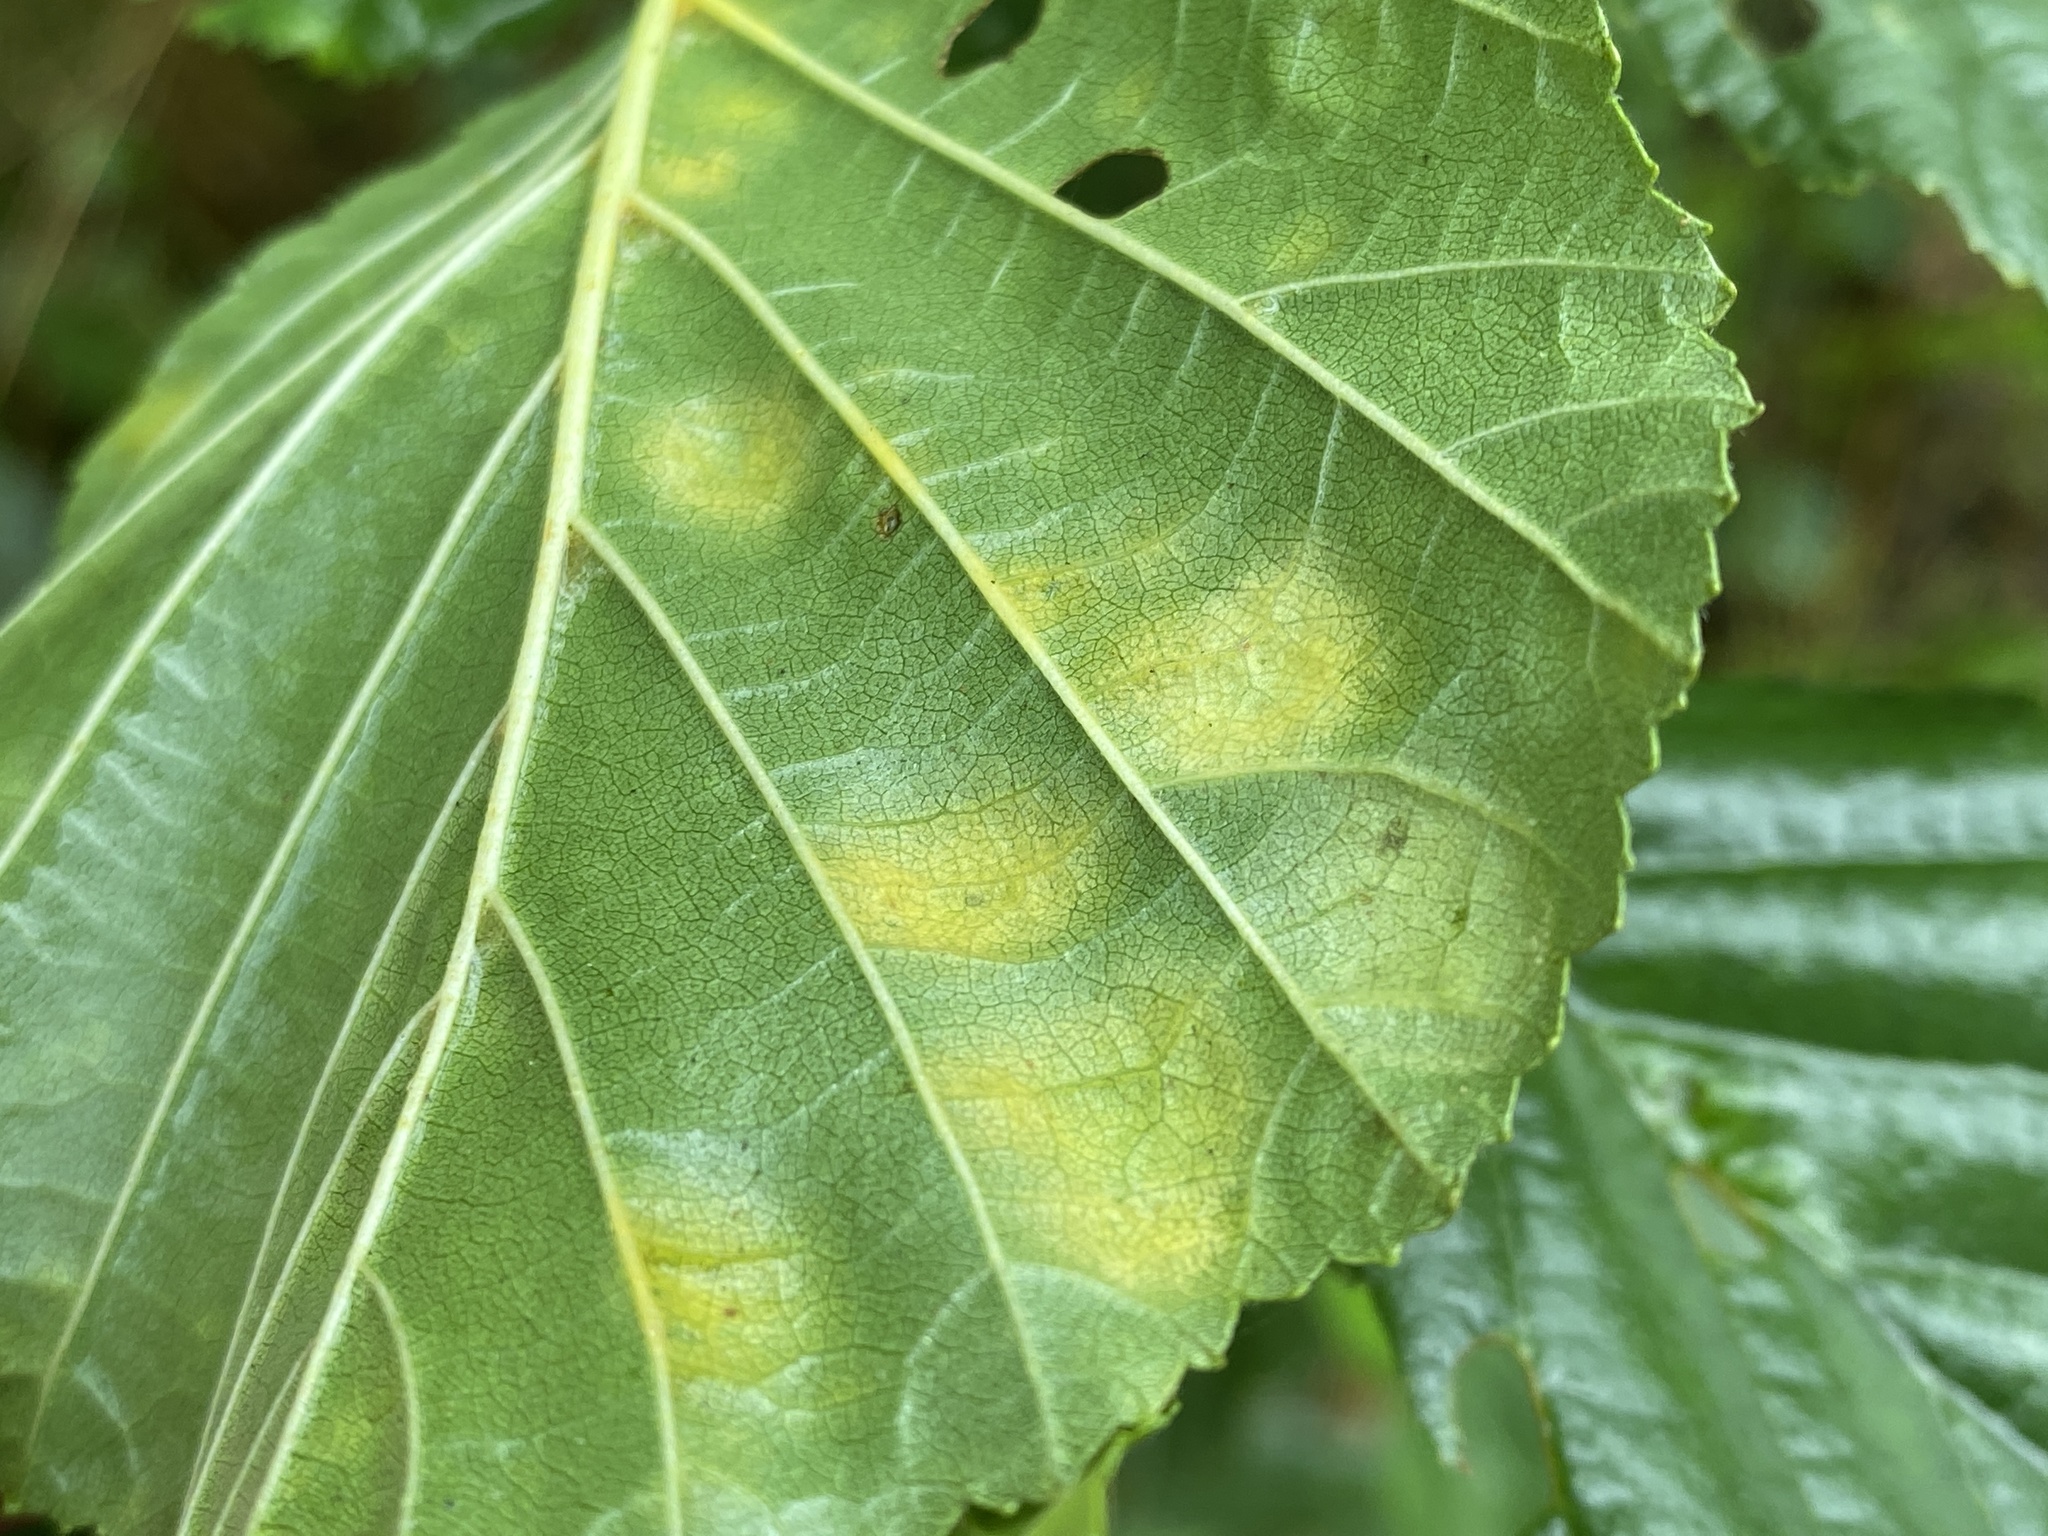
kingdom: Fungi
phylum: Ascomycota
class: Taphrinomycetes
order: Taphrinales
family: Taphrinaceae
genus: Taphrina
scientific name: Taphrina sadebeckii
